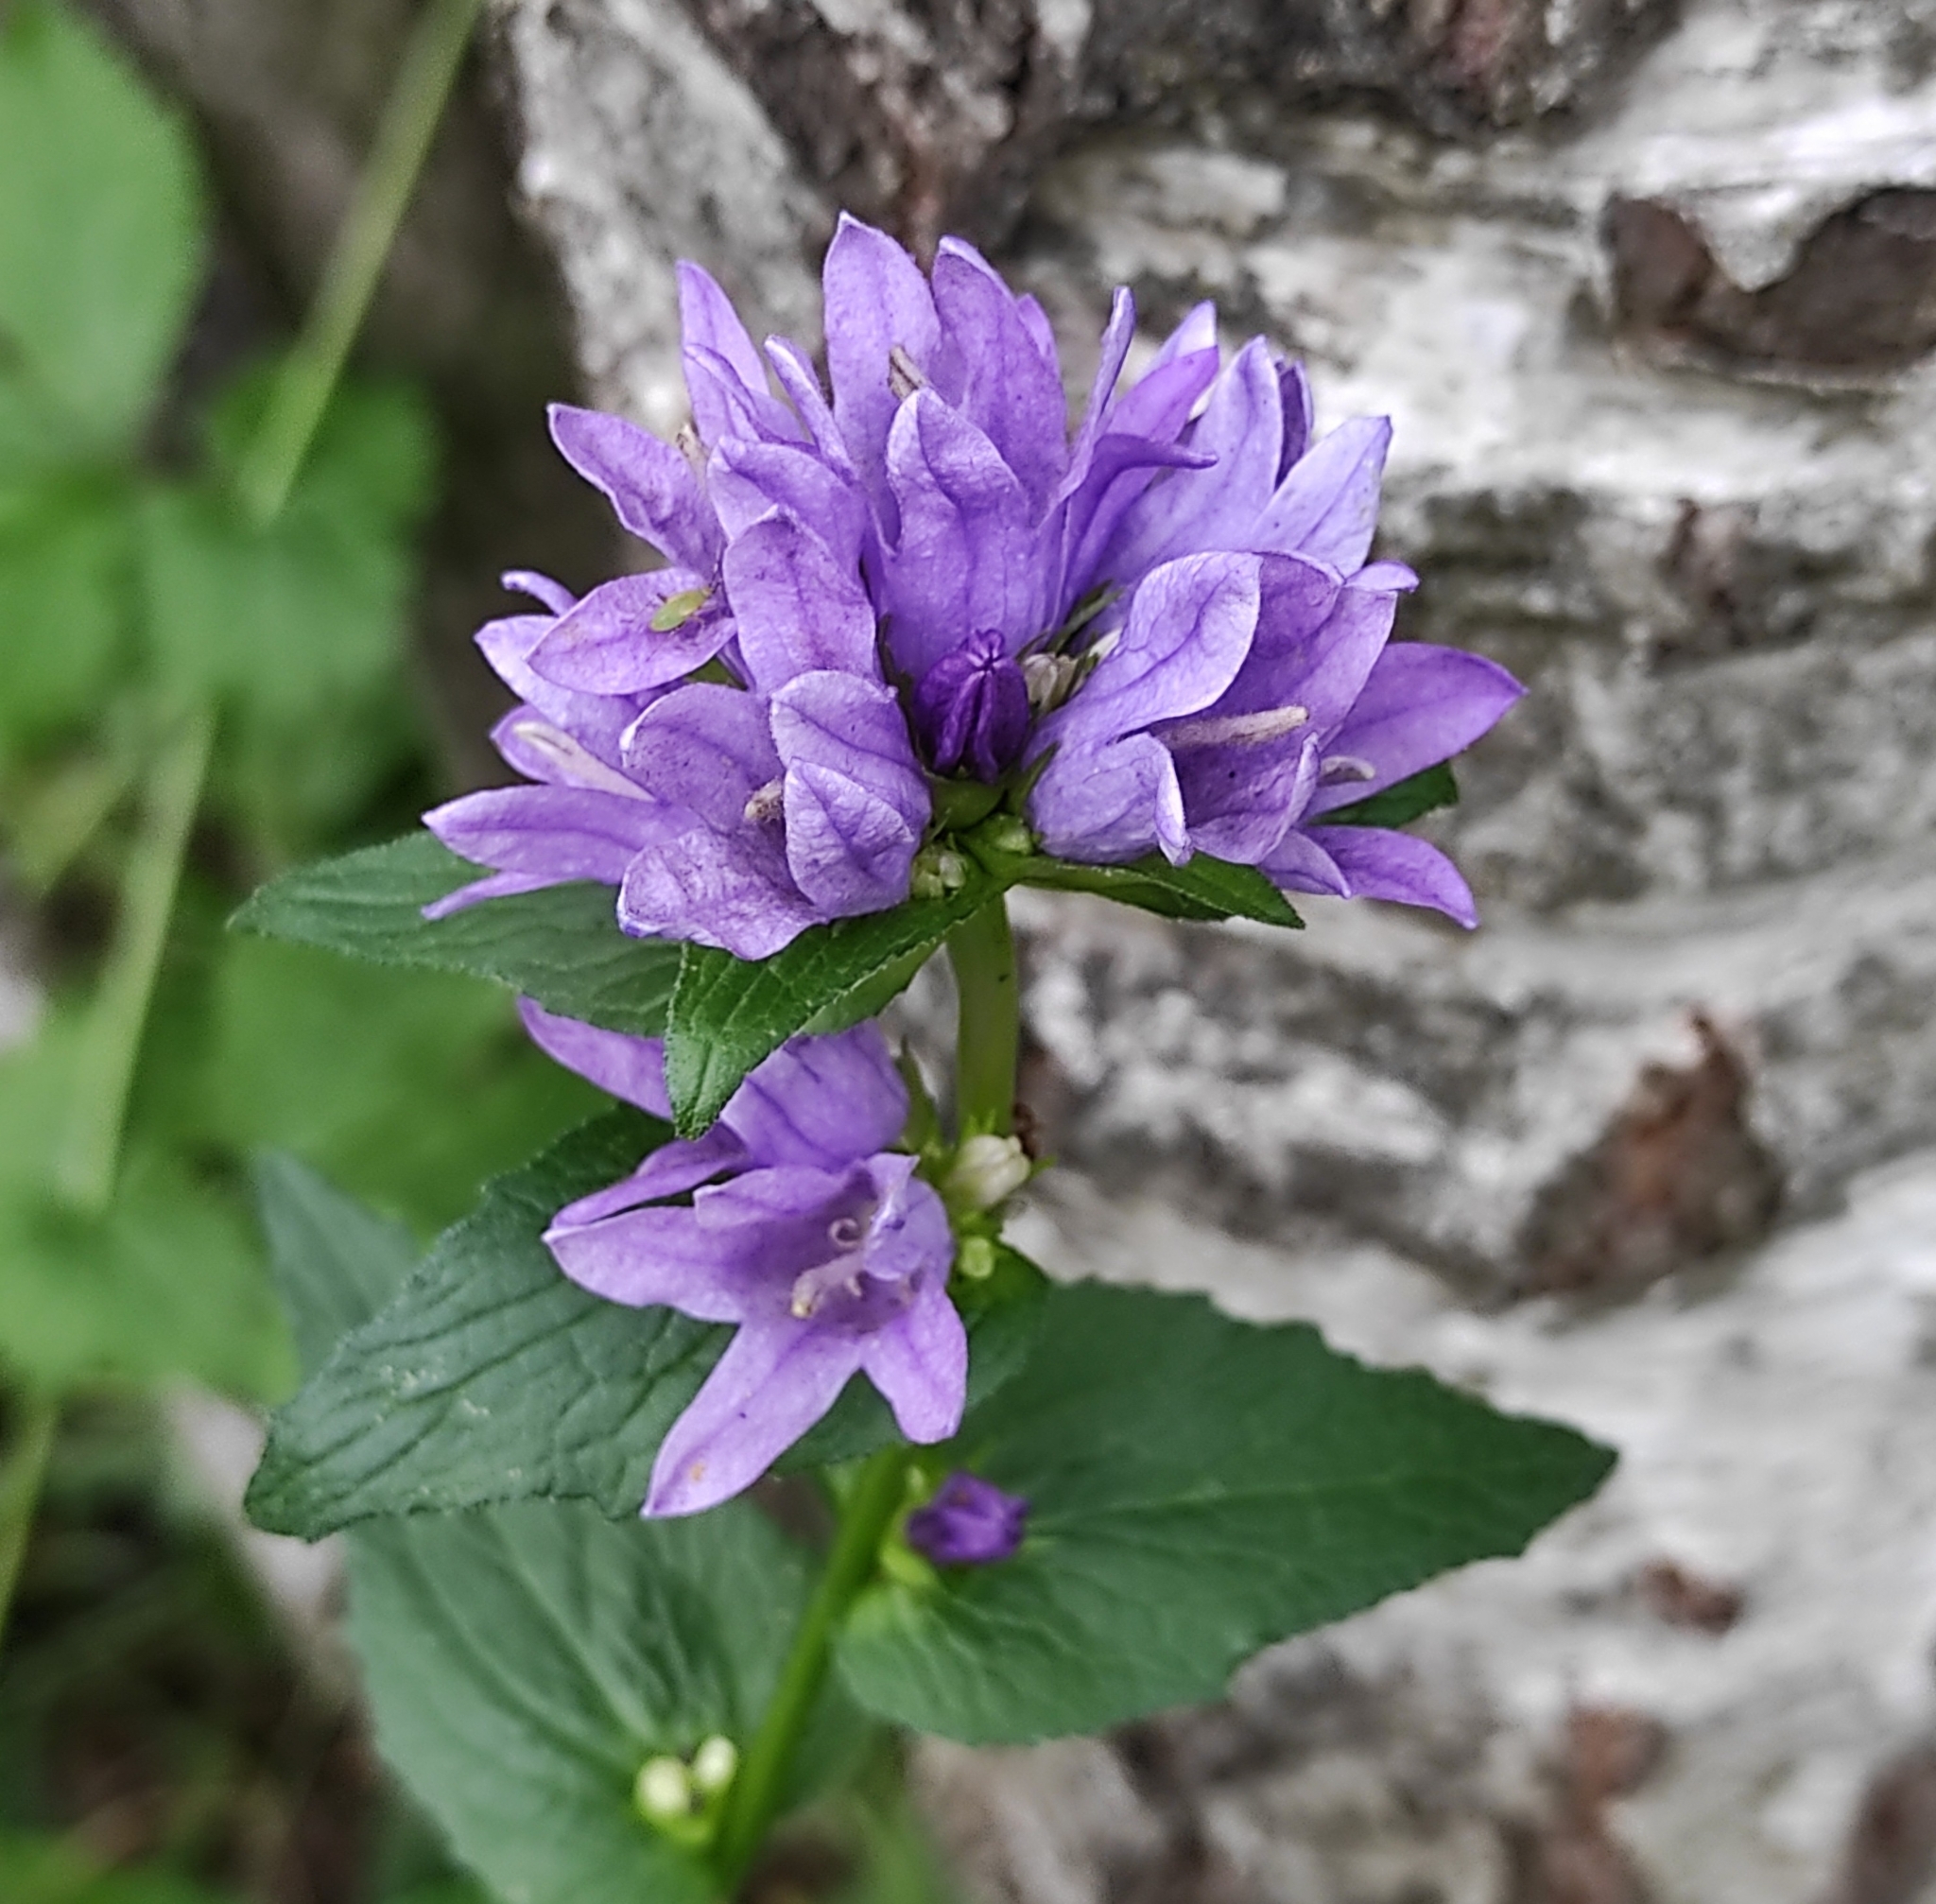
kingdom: Plantae
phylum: Tracheophyta
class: Magnoliopsida
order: Asterales
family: Campanulaceae
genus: Campanula
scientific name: Campanula glomerata
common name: Clustered bellflower
